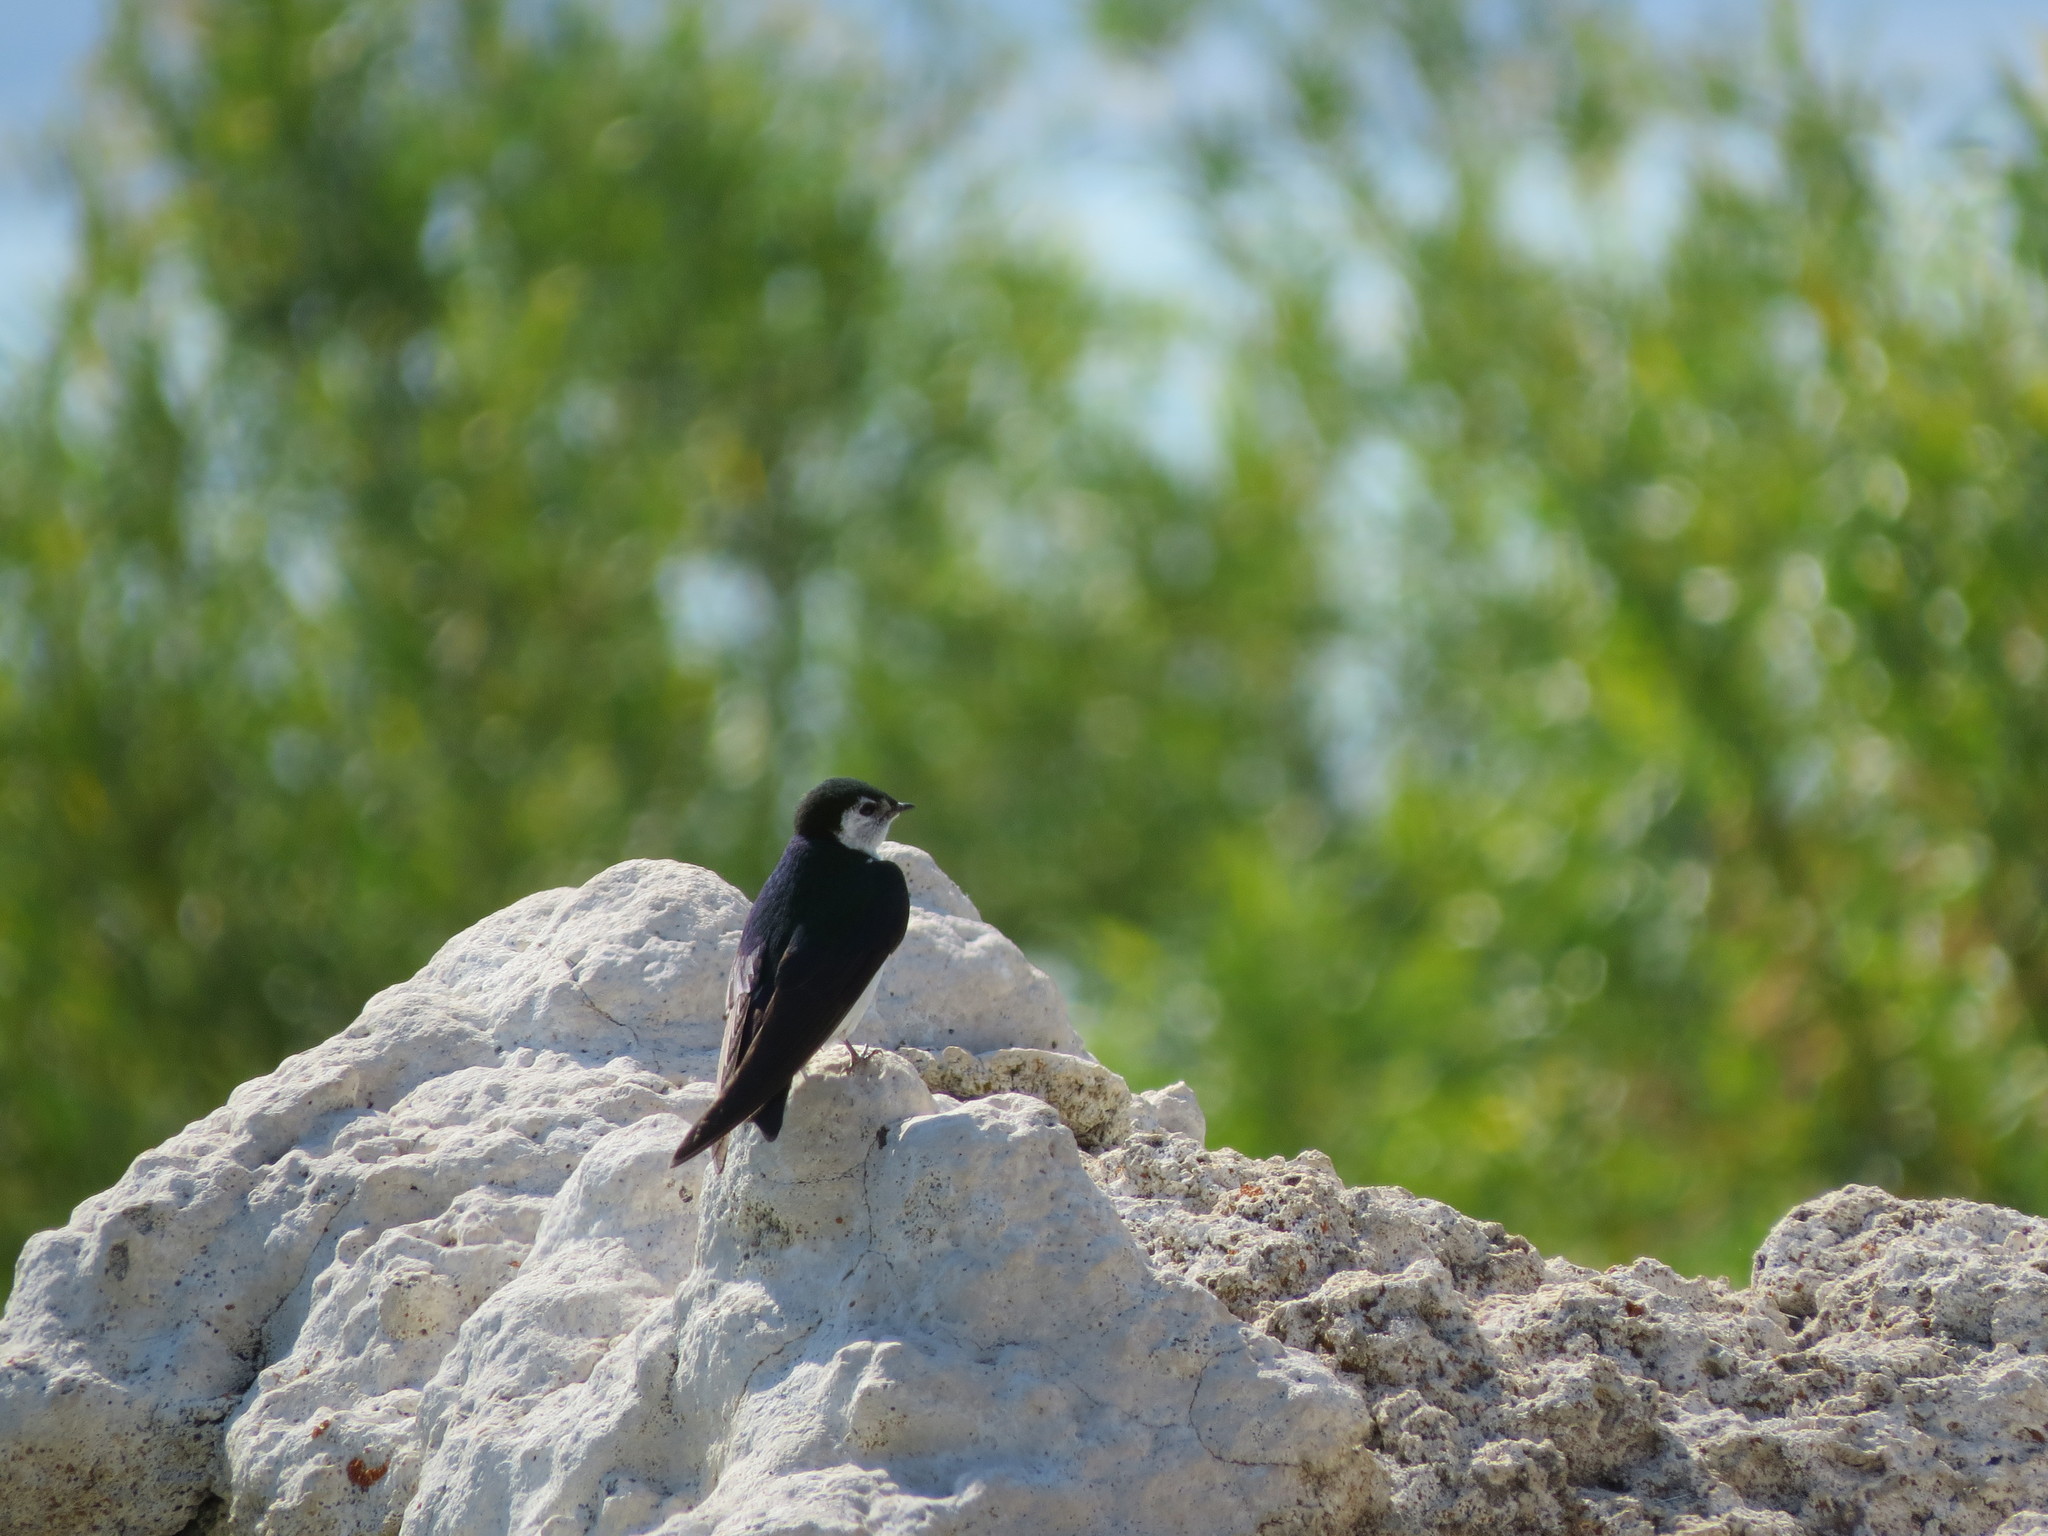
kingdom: Animalia
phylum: Chordata
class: Aves
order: Passeriformes
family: Hirundinidae
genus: Tachycineta
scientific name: Tachycineta thalassina
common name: Violet-green swallow
